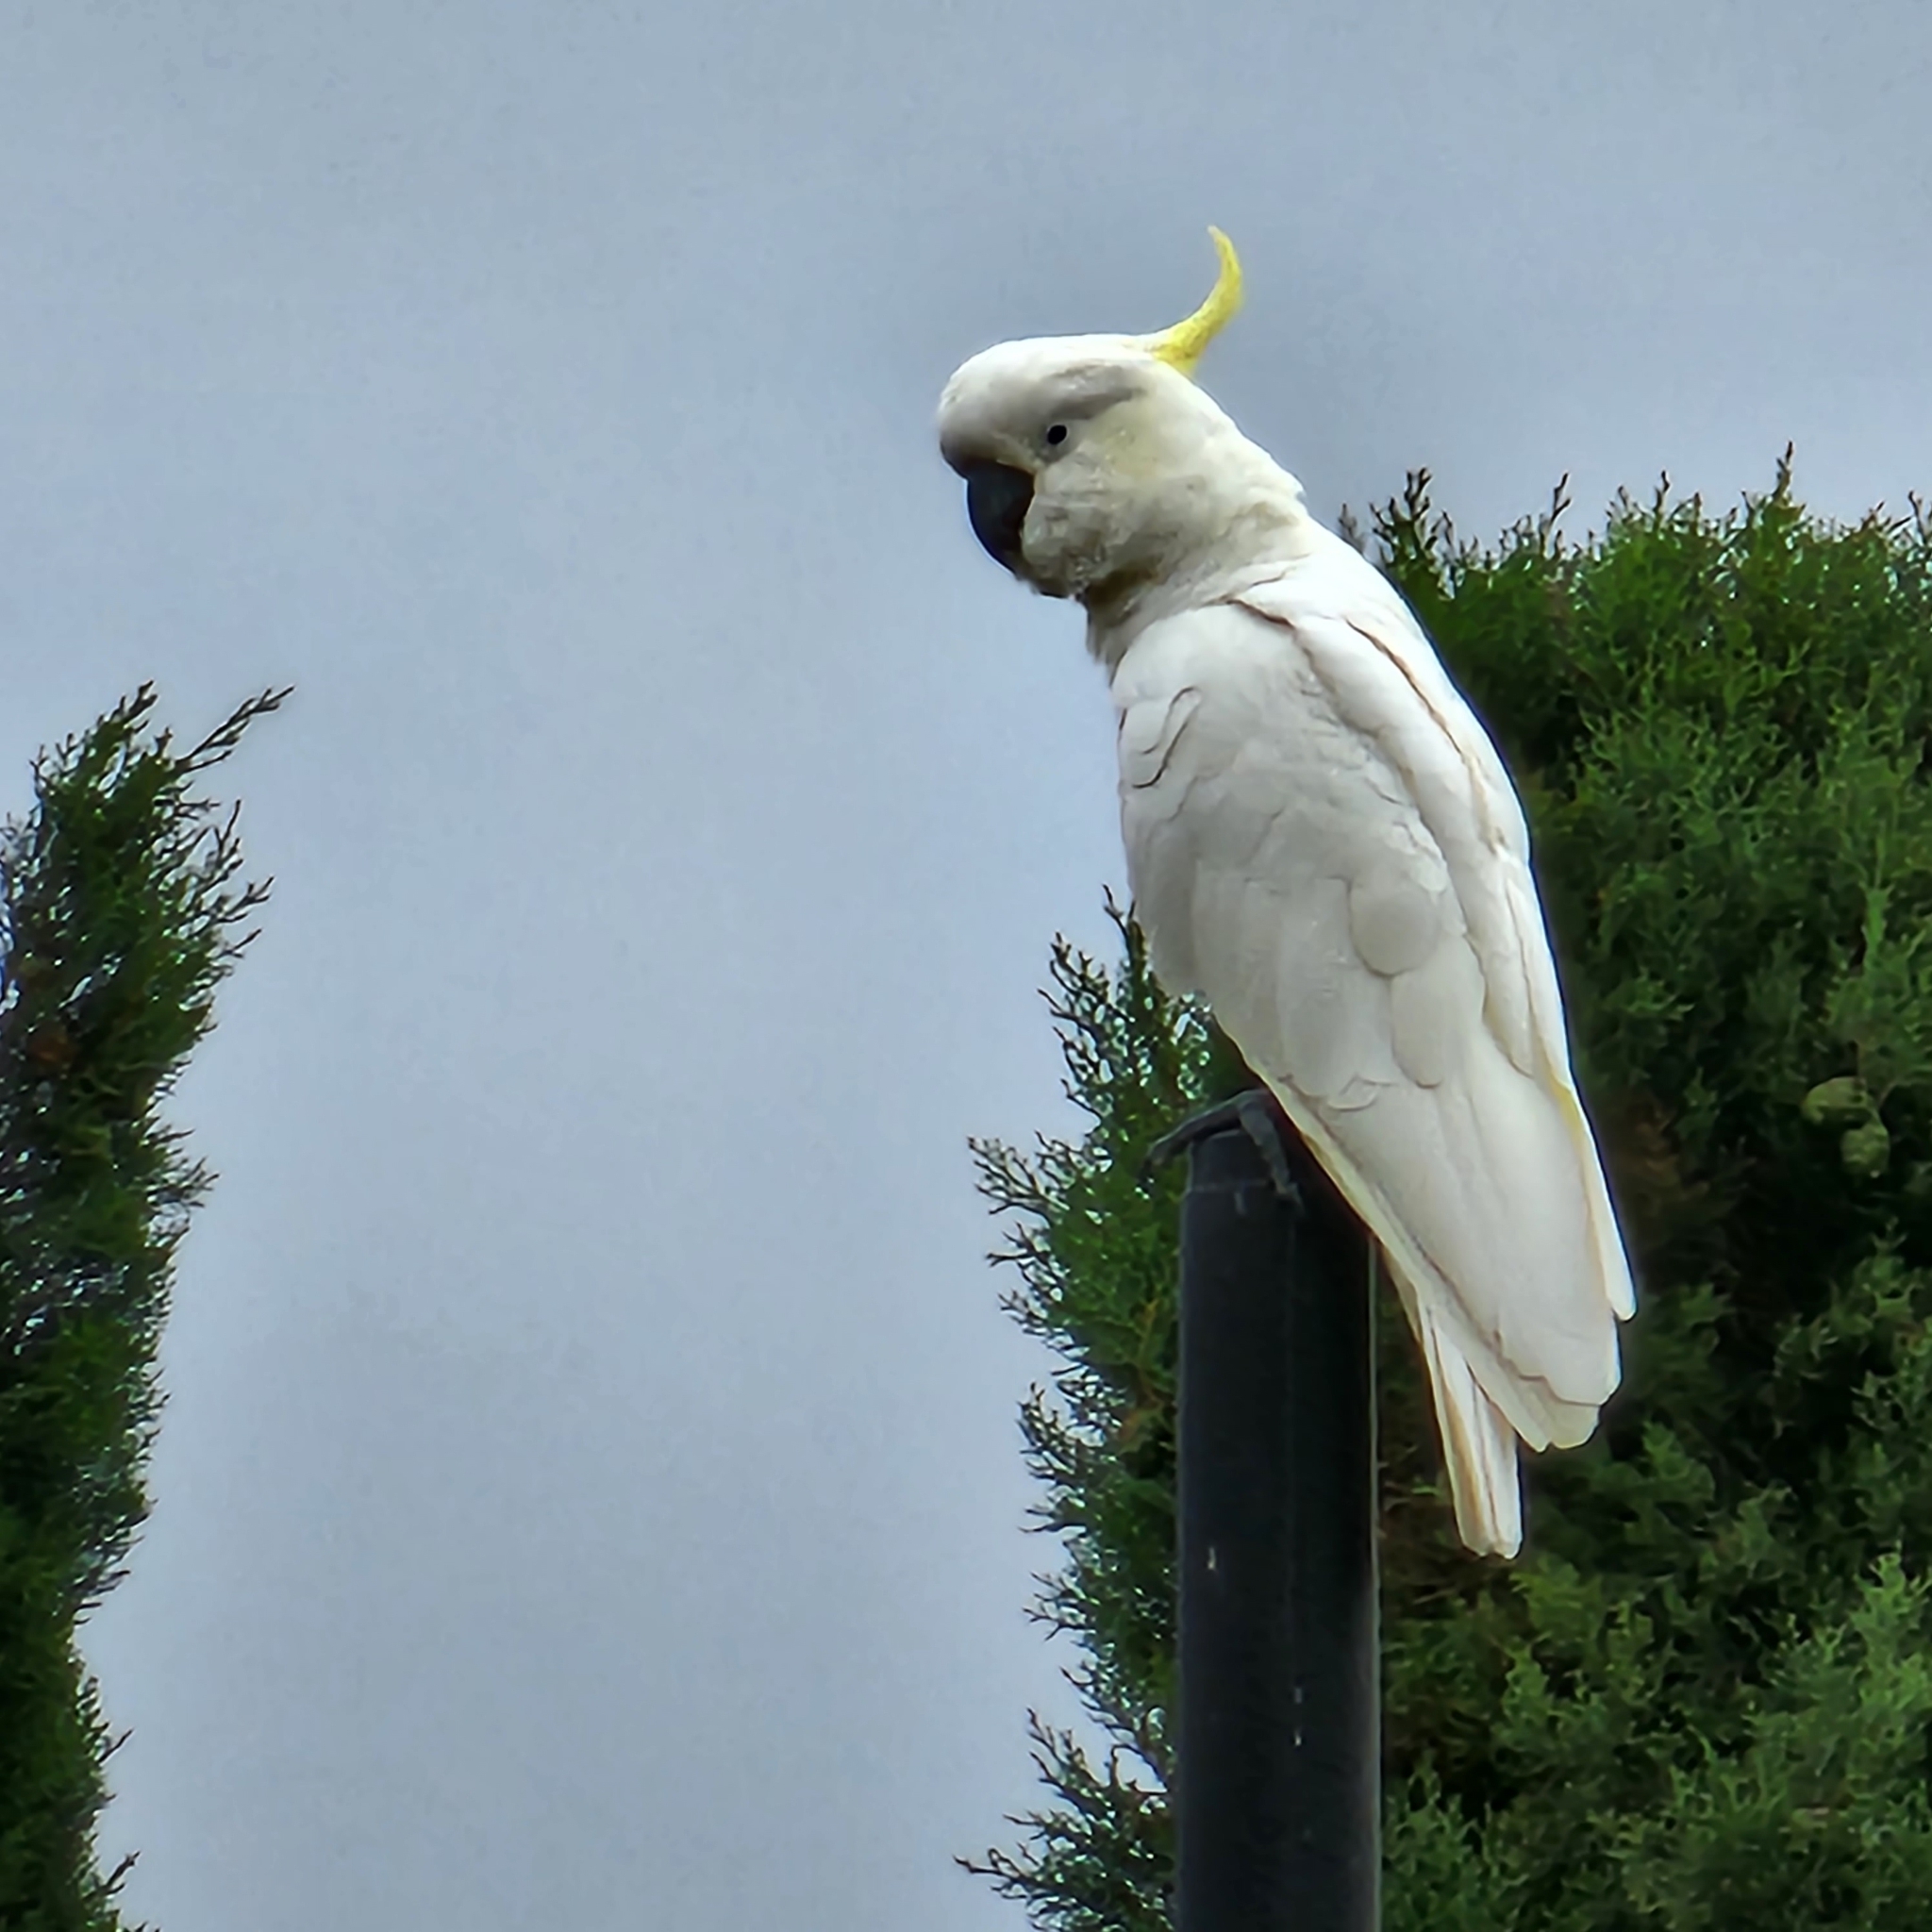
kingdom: Animalia
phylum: Chordata
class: Aves
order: Psittaciformes
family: Psittacidae
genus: Cacatua
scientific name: Cacatua galerita
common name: Sulphur-crested cockatoo
